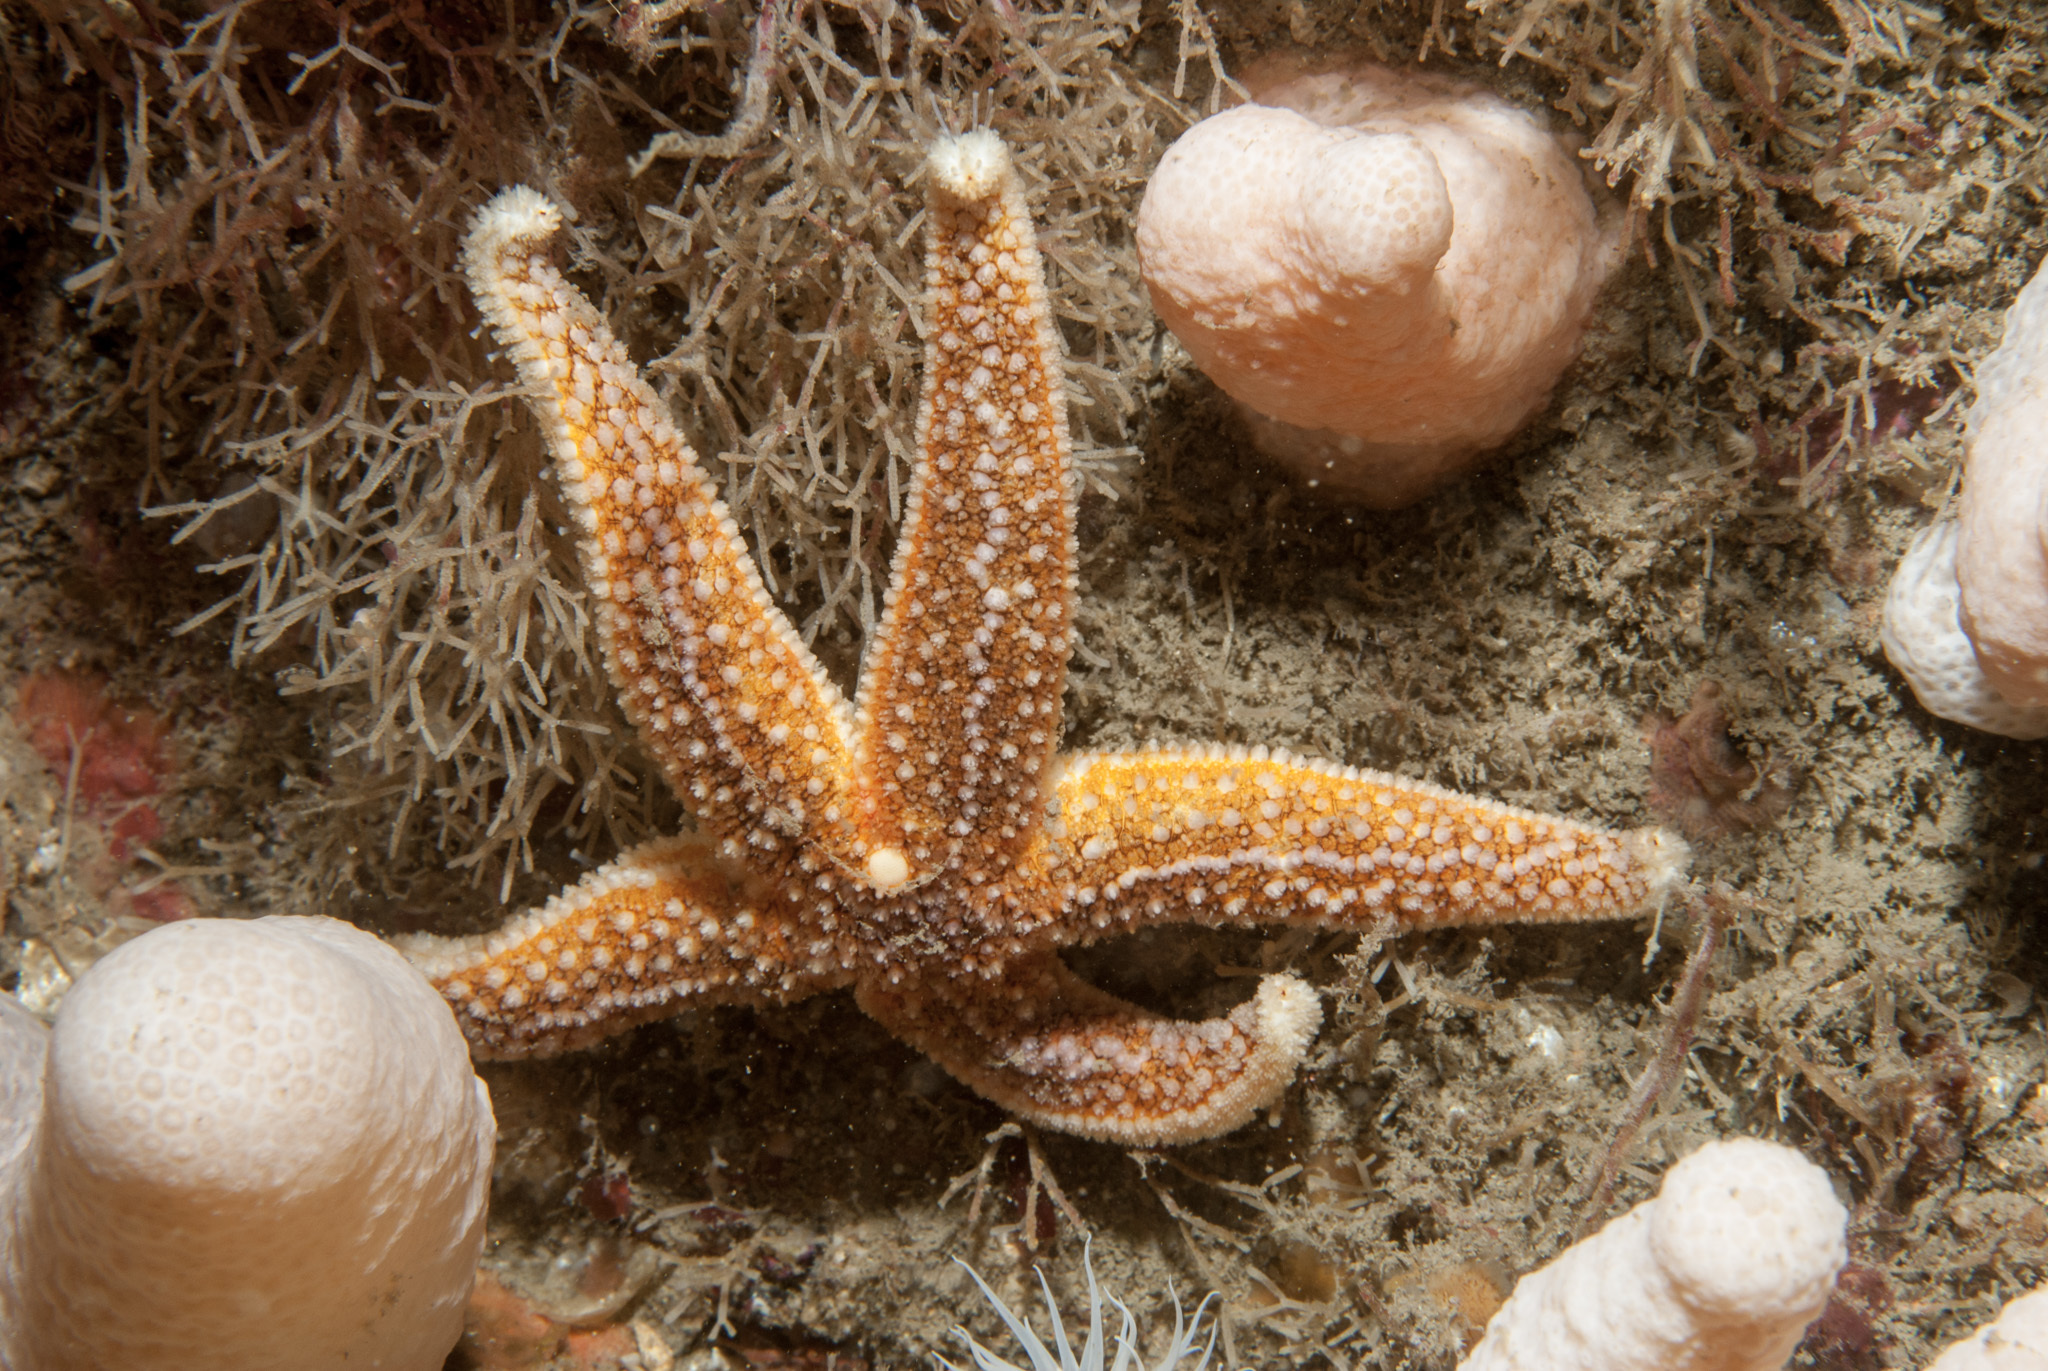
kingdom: Animalia
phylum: Echinodermata
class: Asteroidea
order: Forcipulatida
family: Asteriidae
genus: Asterias
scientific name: Asterias rubens
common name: Common starfish
